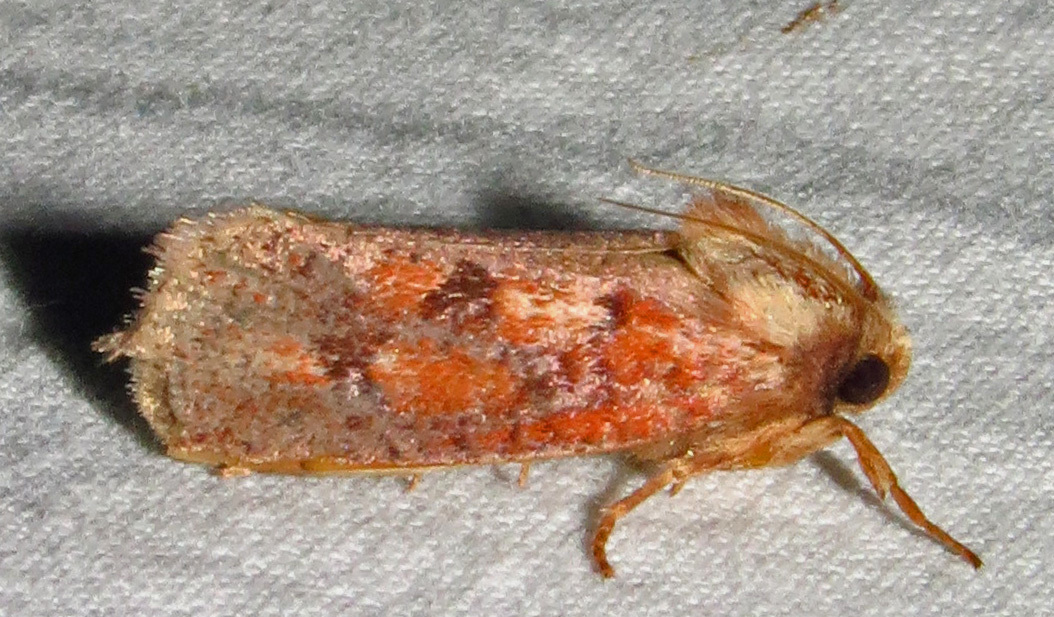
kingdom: Animalia
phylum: Arthropoda
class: Insecta
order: Lepidoptera
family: Tineidae
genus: Acrolophus
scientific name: Acrolophus plumifrontella
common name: Eastern grass tubeworm moth
